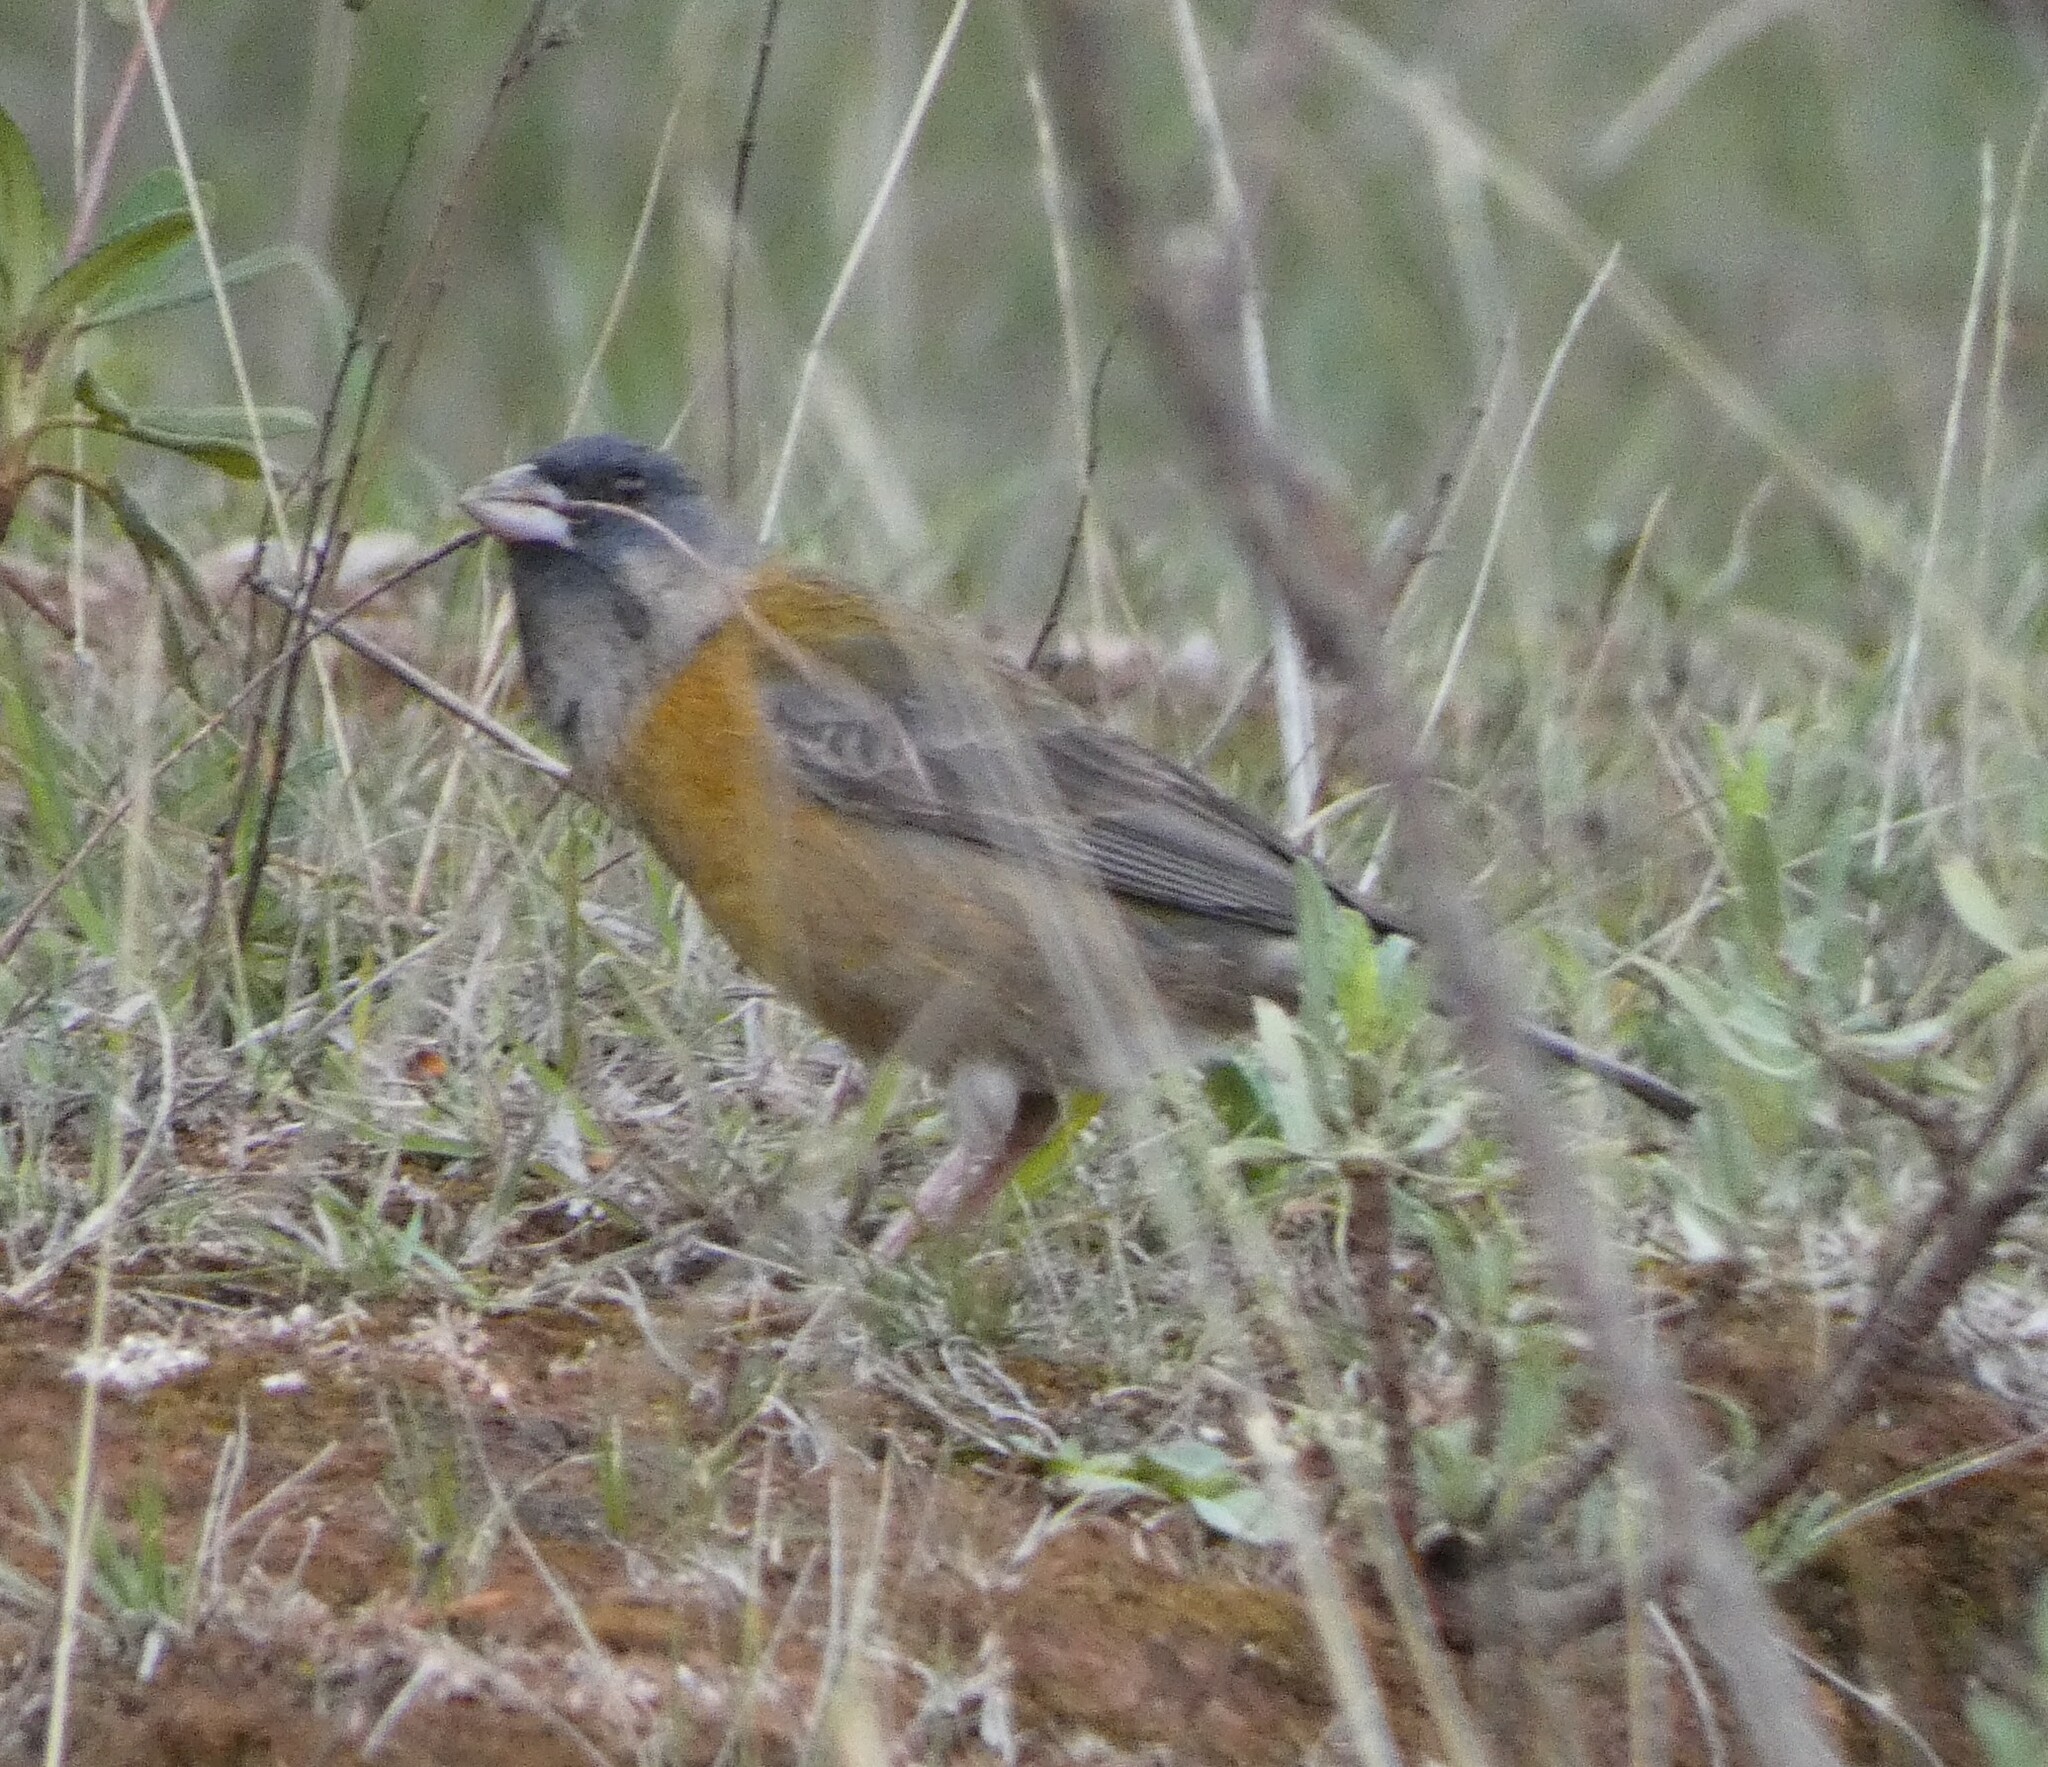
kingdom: Animalia
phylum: Chordata
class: Aves
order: Passeriformes
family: Thraupidae
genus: Phrygilus
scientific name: Phrygilus punensis
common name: Peruvian sierra finch
